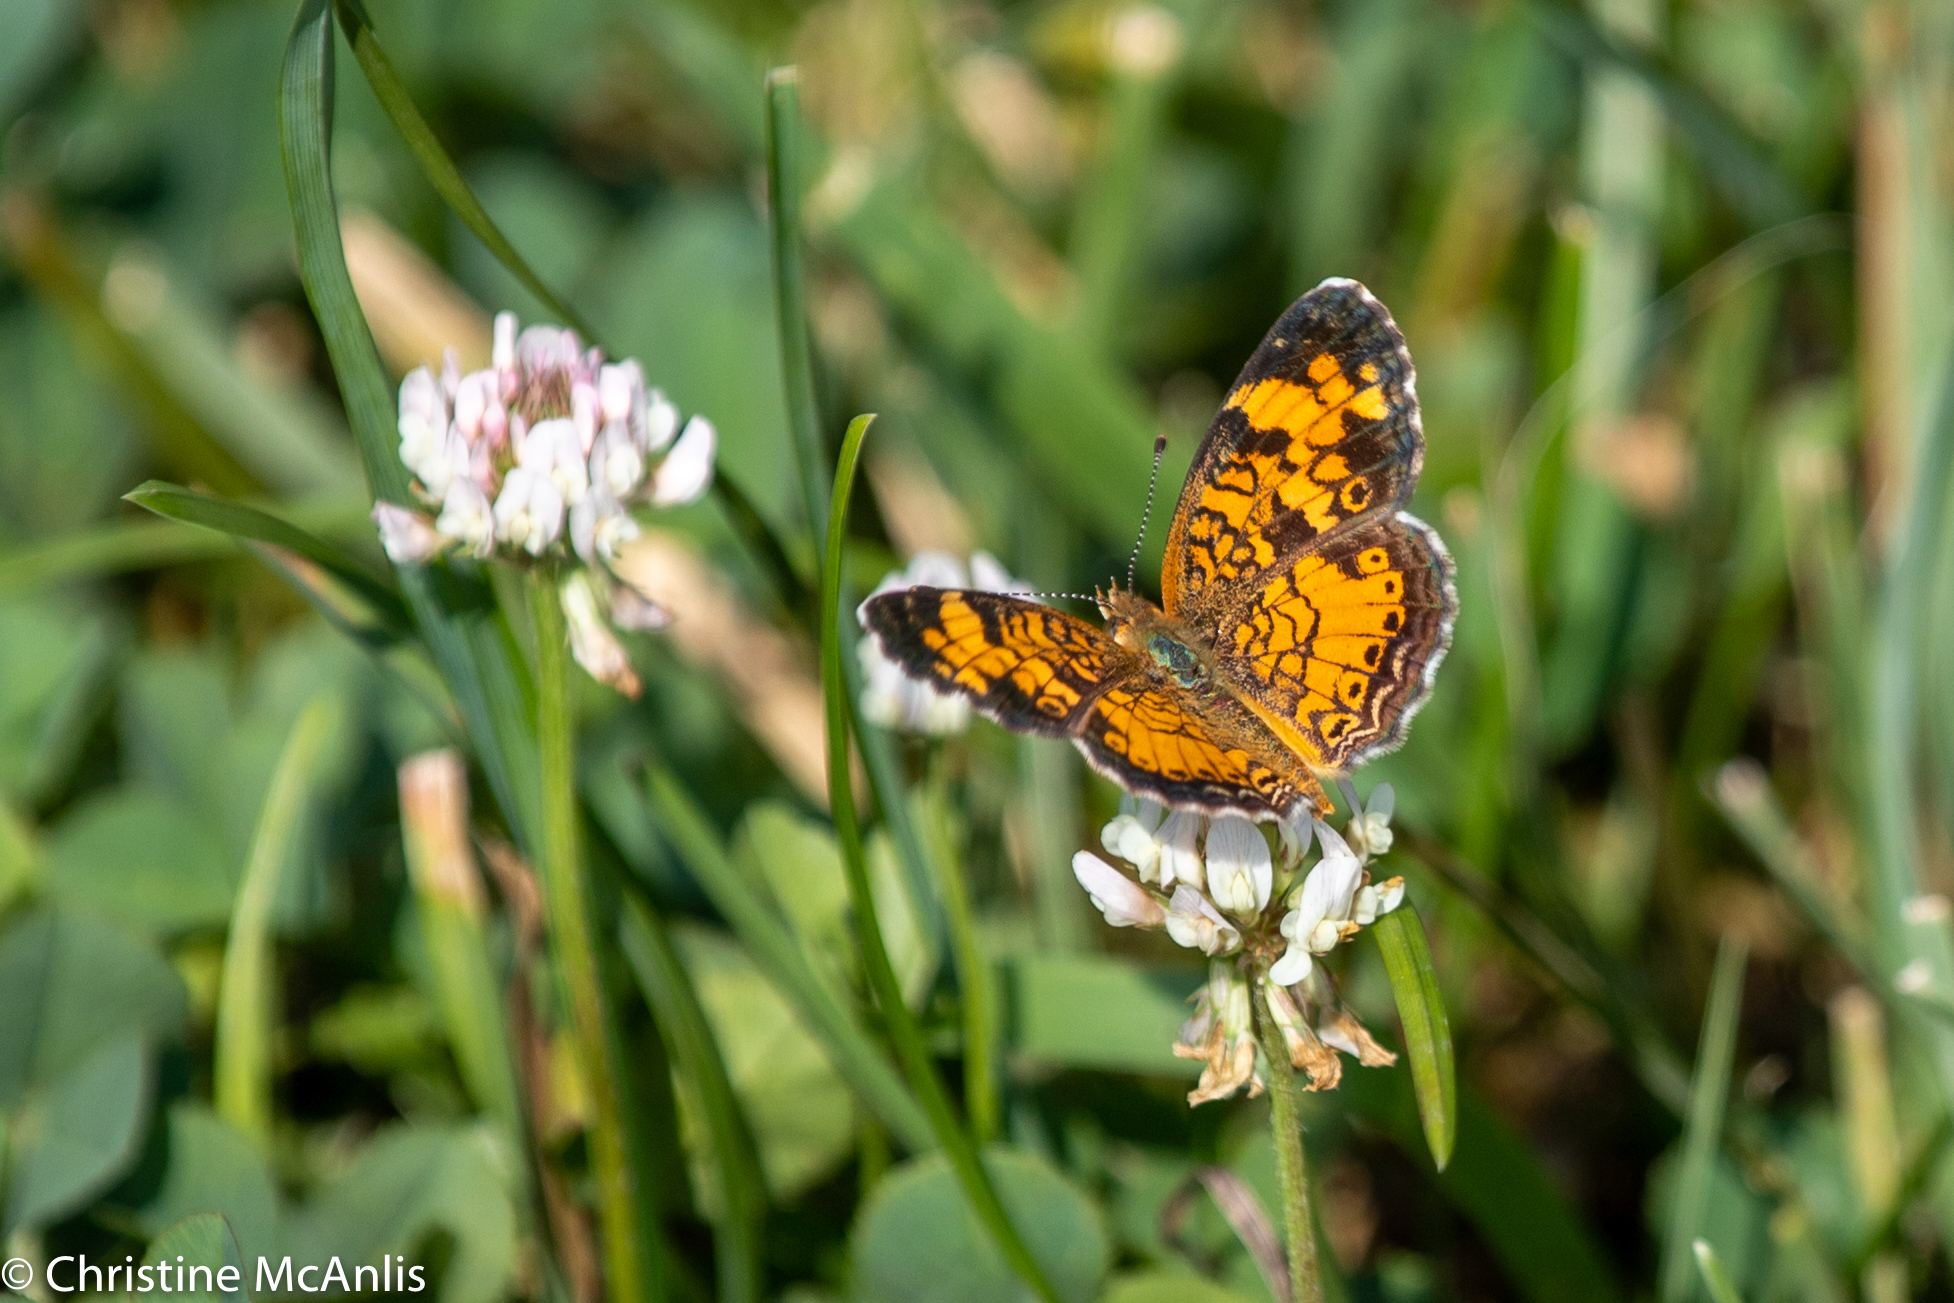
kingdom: Animalia
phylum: Arthropoda
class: Insecta
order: Lepidoptera
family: Nymphalidae
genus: Phyciodes
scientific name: Phyciodes tharos
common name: Pearl crescent
